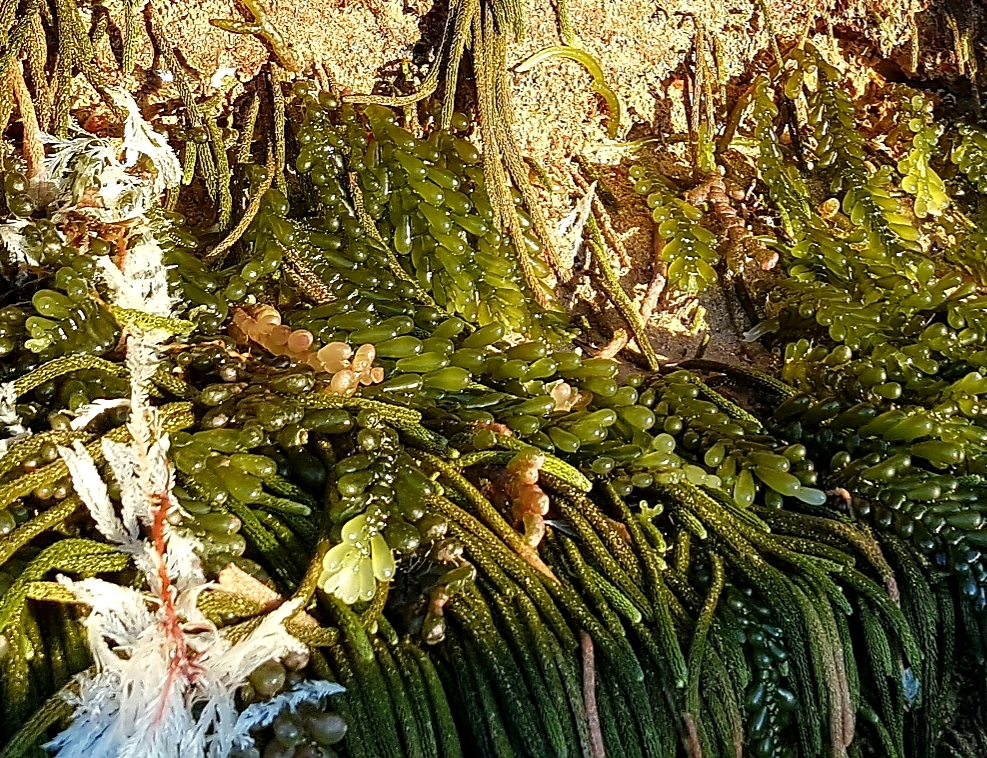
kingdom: Plantae
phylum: Chlorophyta
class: Ulvophyceae
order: Bryopsidales
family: Caulerpaceae
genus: Caulerpa
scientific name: Caulerpa cactoides
